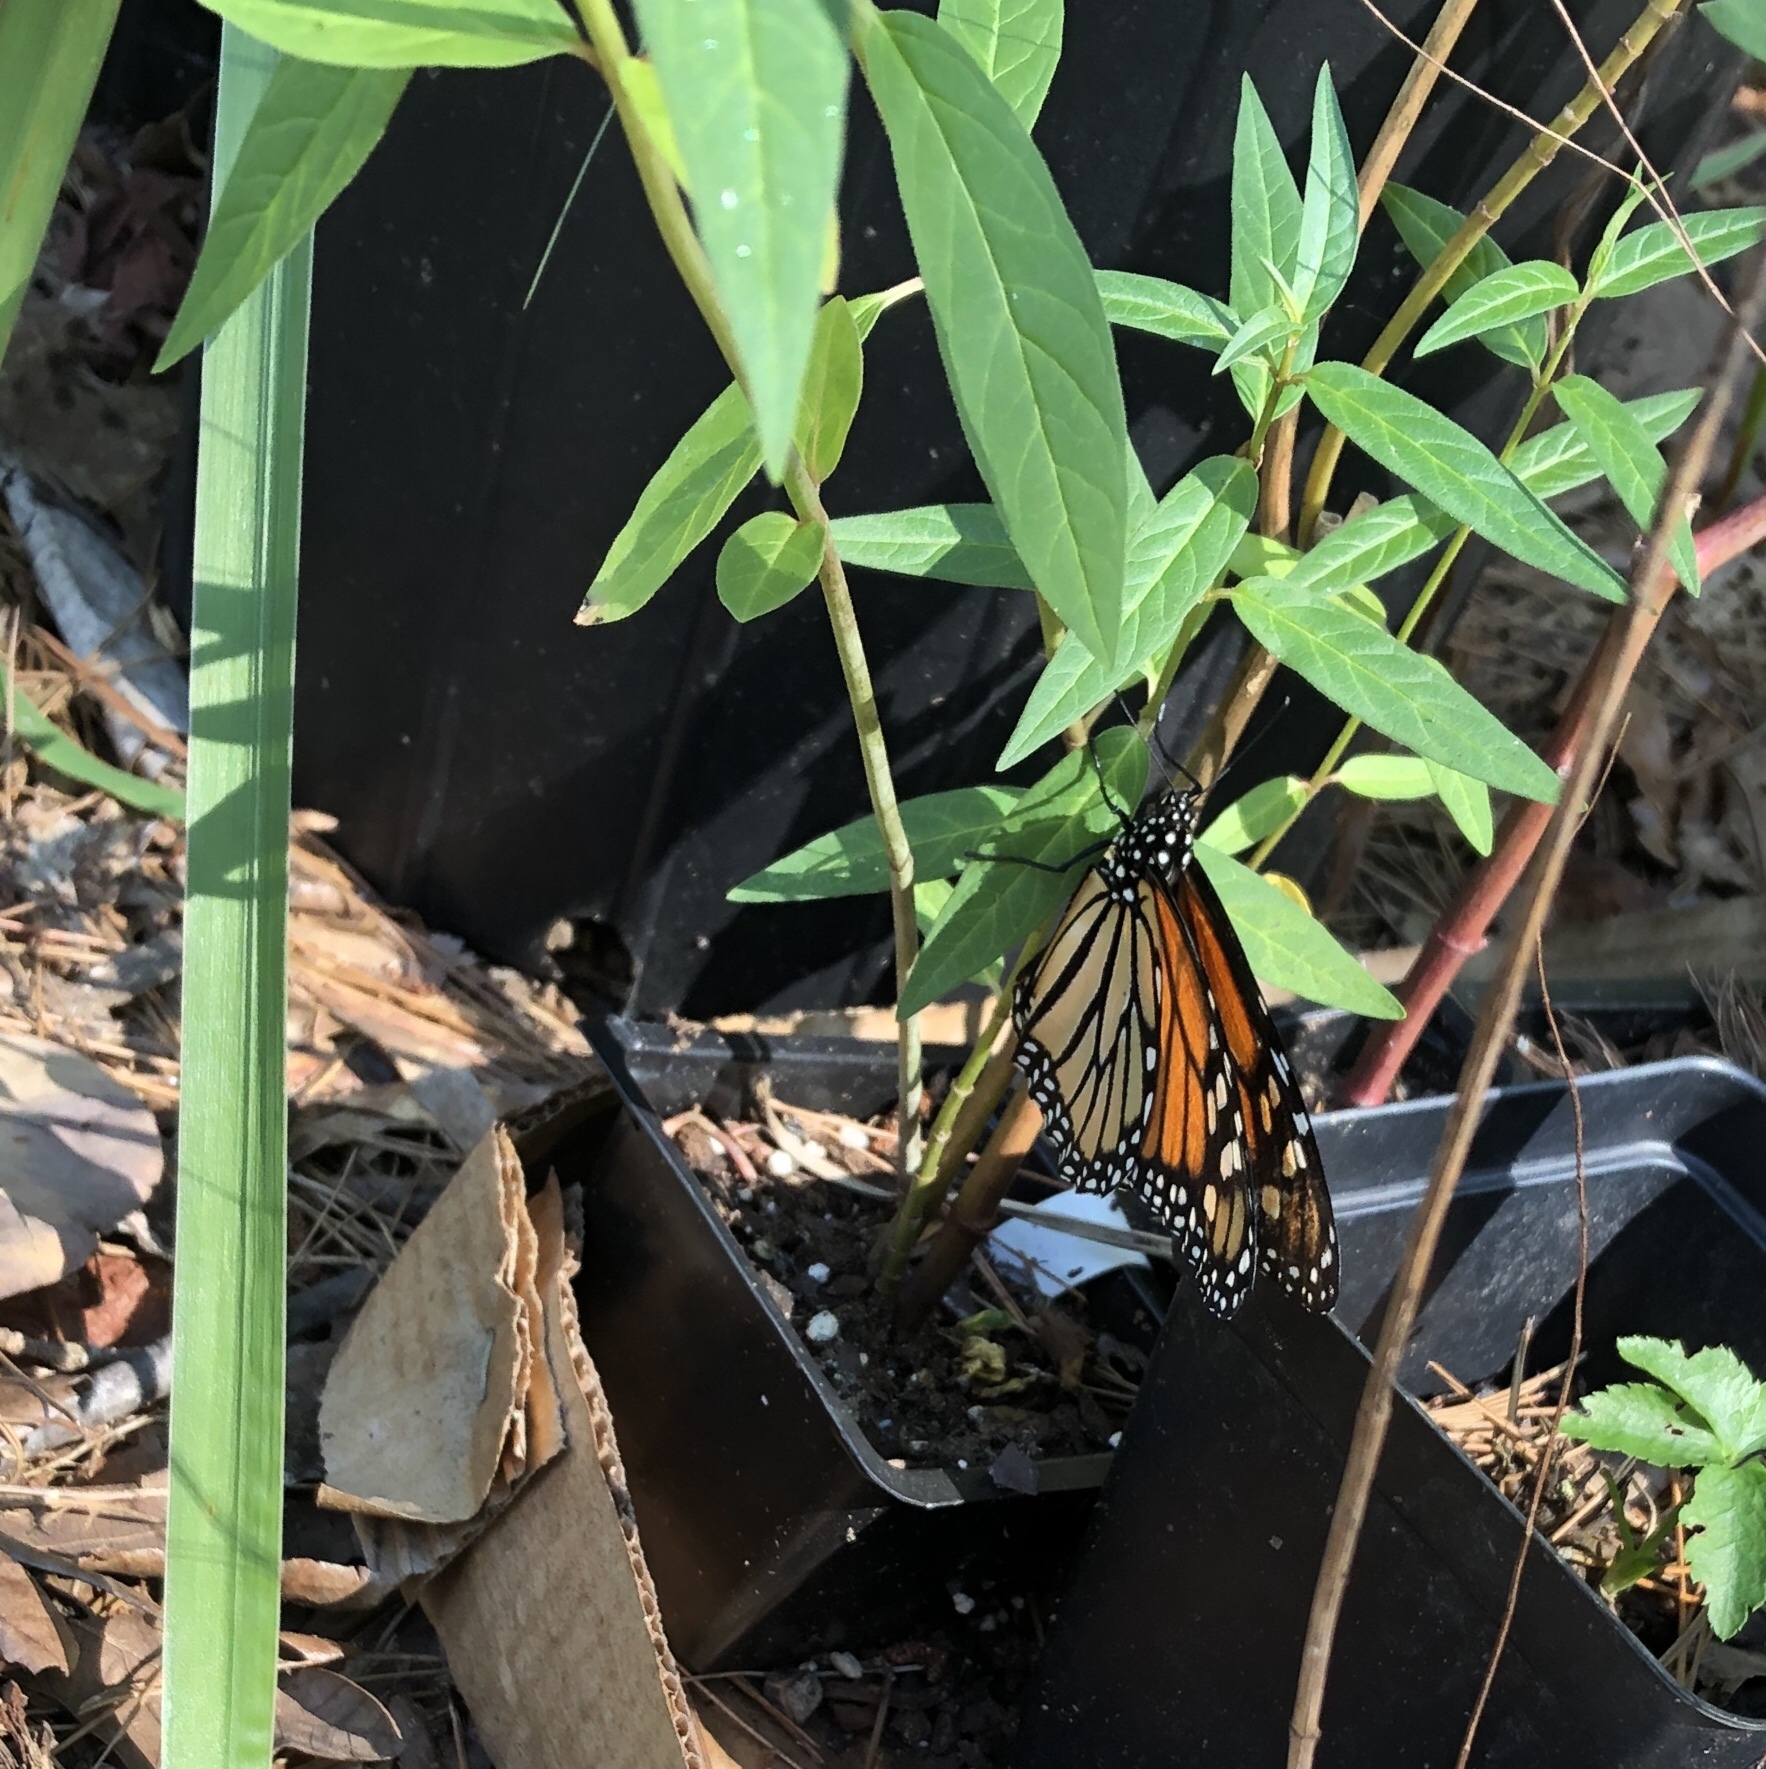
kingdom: Animalia
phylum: Arthropoda
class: Insecta
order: Lepidoptera
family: Nymphalidae
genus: Danaus
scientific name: Danaus plexippus
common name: Monarch
